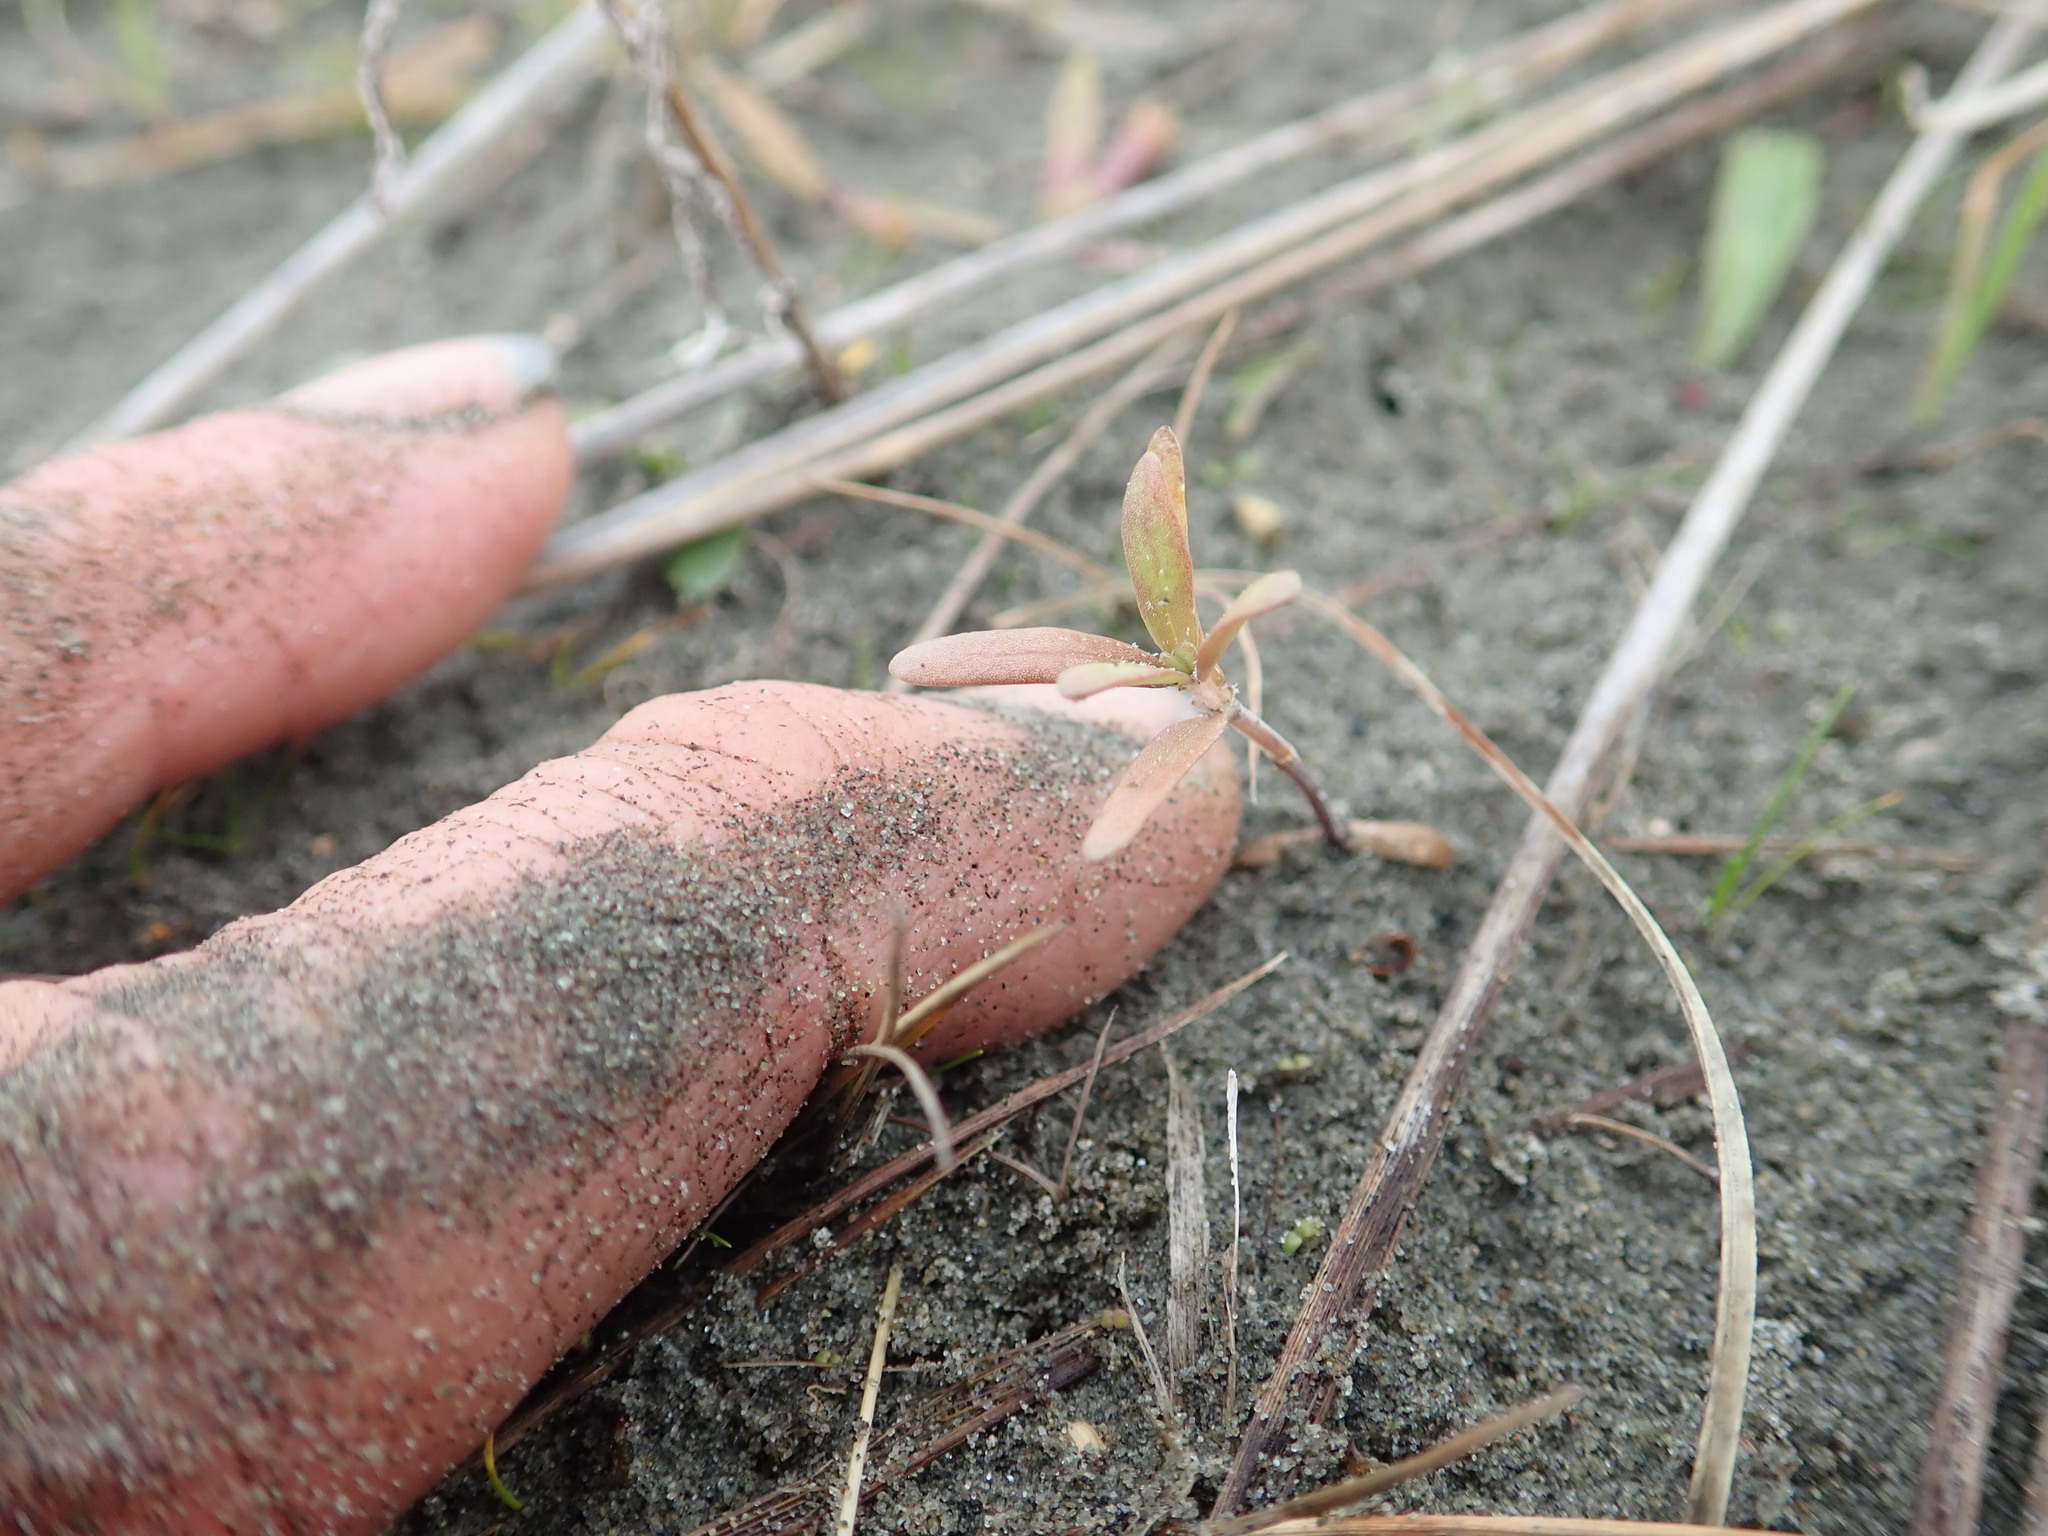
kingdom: Plantae
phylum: Tracheophyta
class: Magnoliopsida
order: Gentianales
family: Rubiaceae
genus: Coprosma
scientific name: Coprosma acerosa
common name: Sand coprosma
